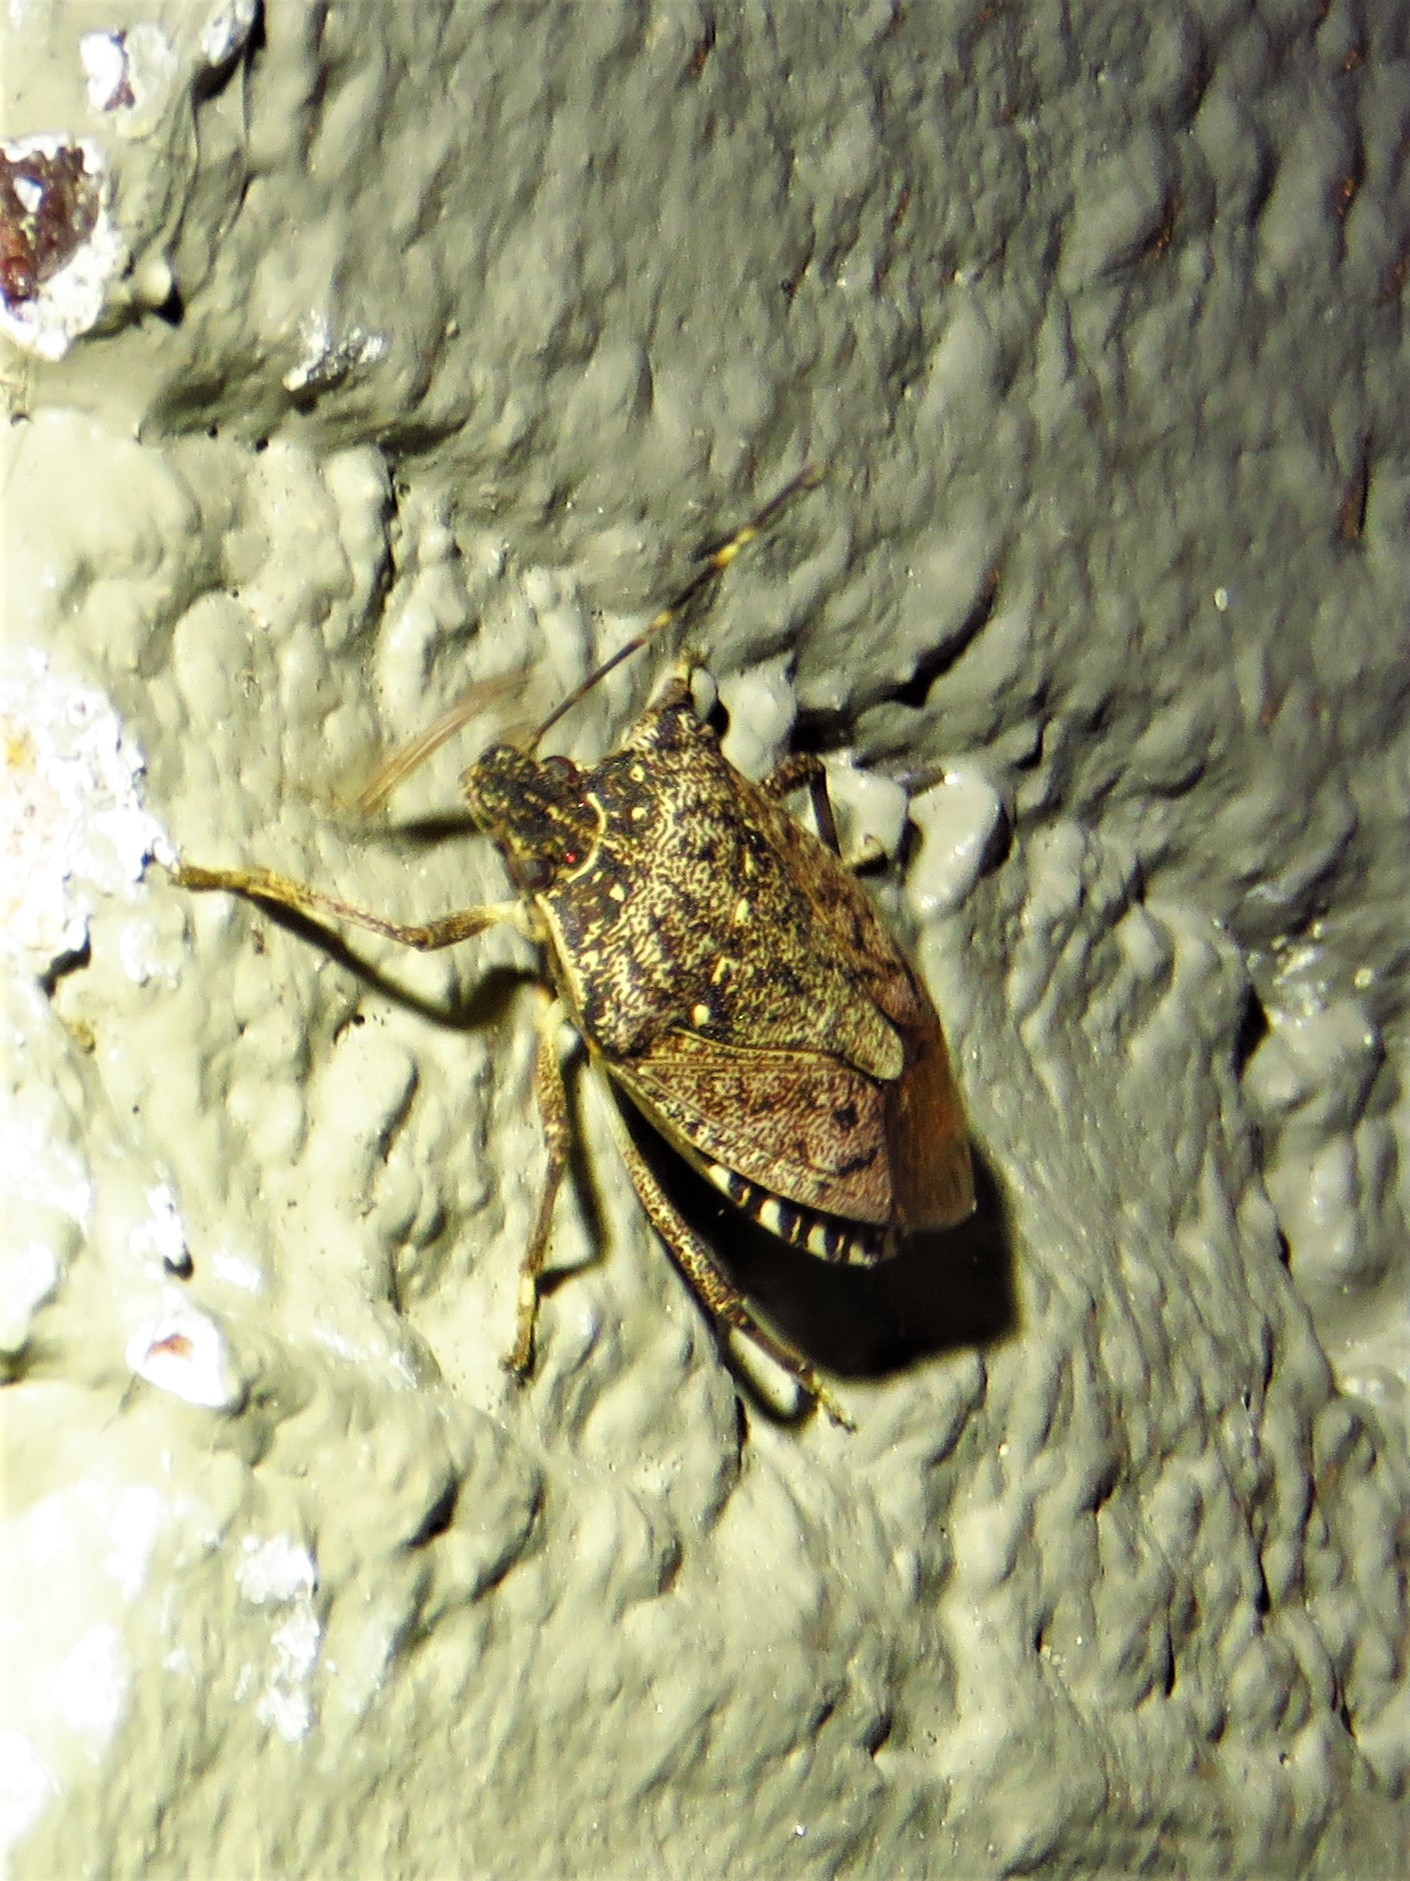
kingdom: Animalia
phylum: Arthropoda
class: Insecta
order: Hemiptera
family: Pentatomidae
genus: Halyomorpha
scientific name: Halyomorpha halys
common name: Brown marmorated stink bug
